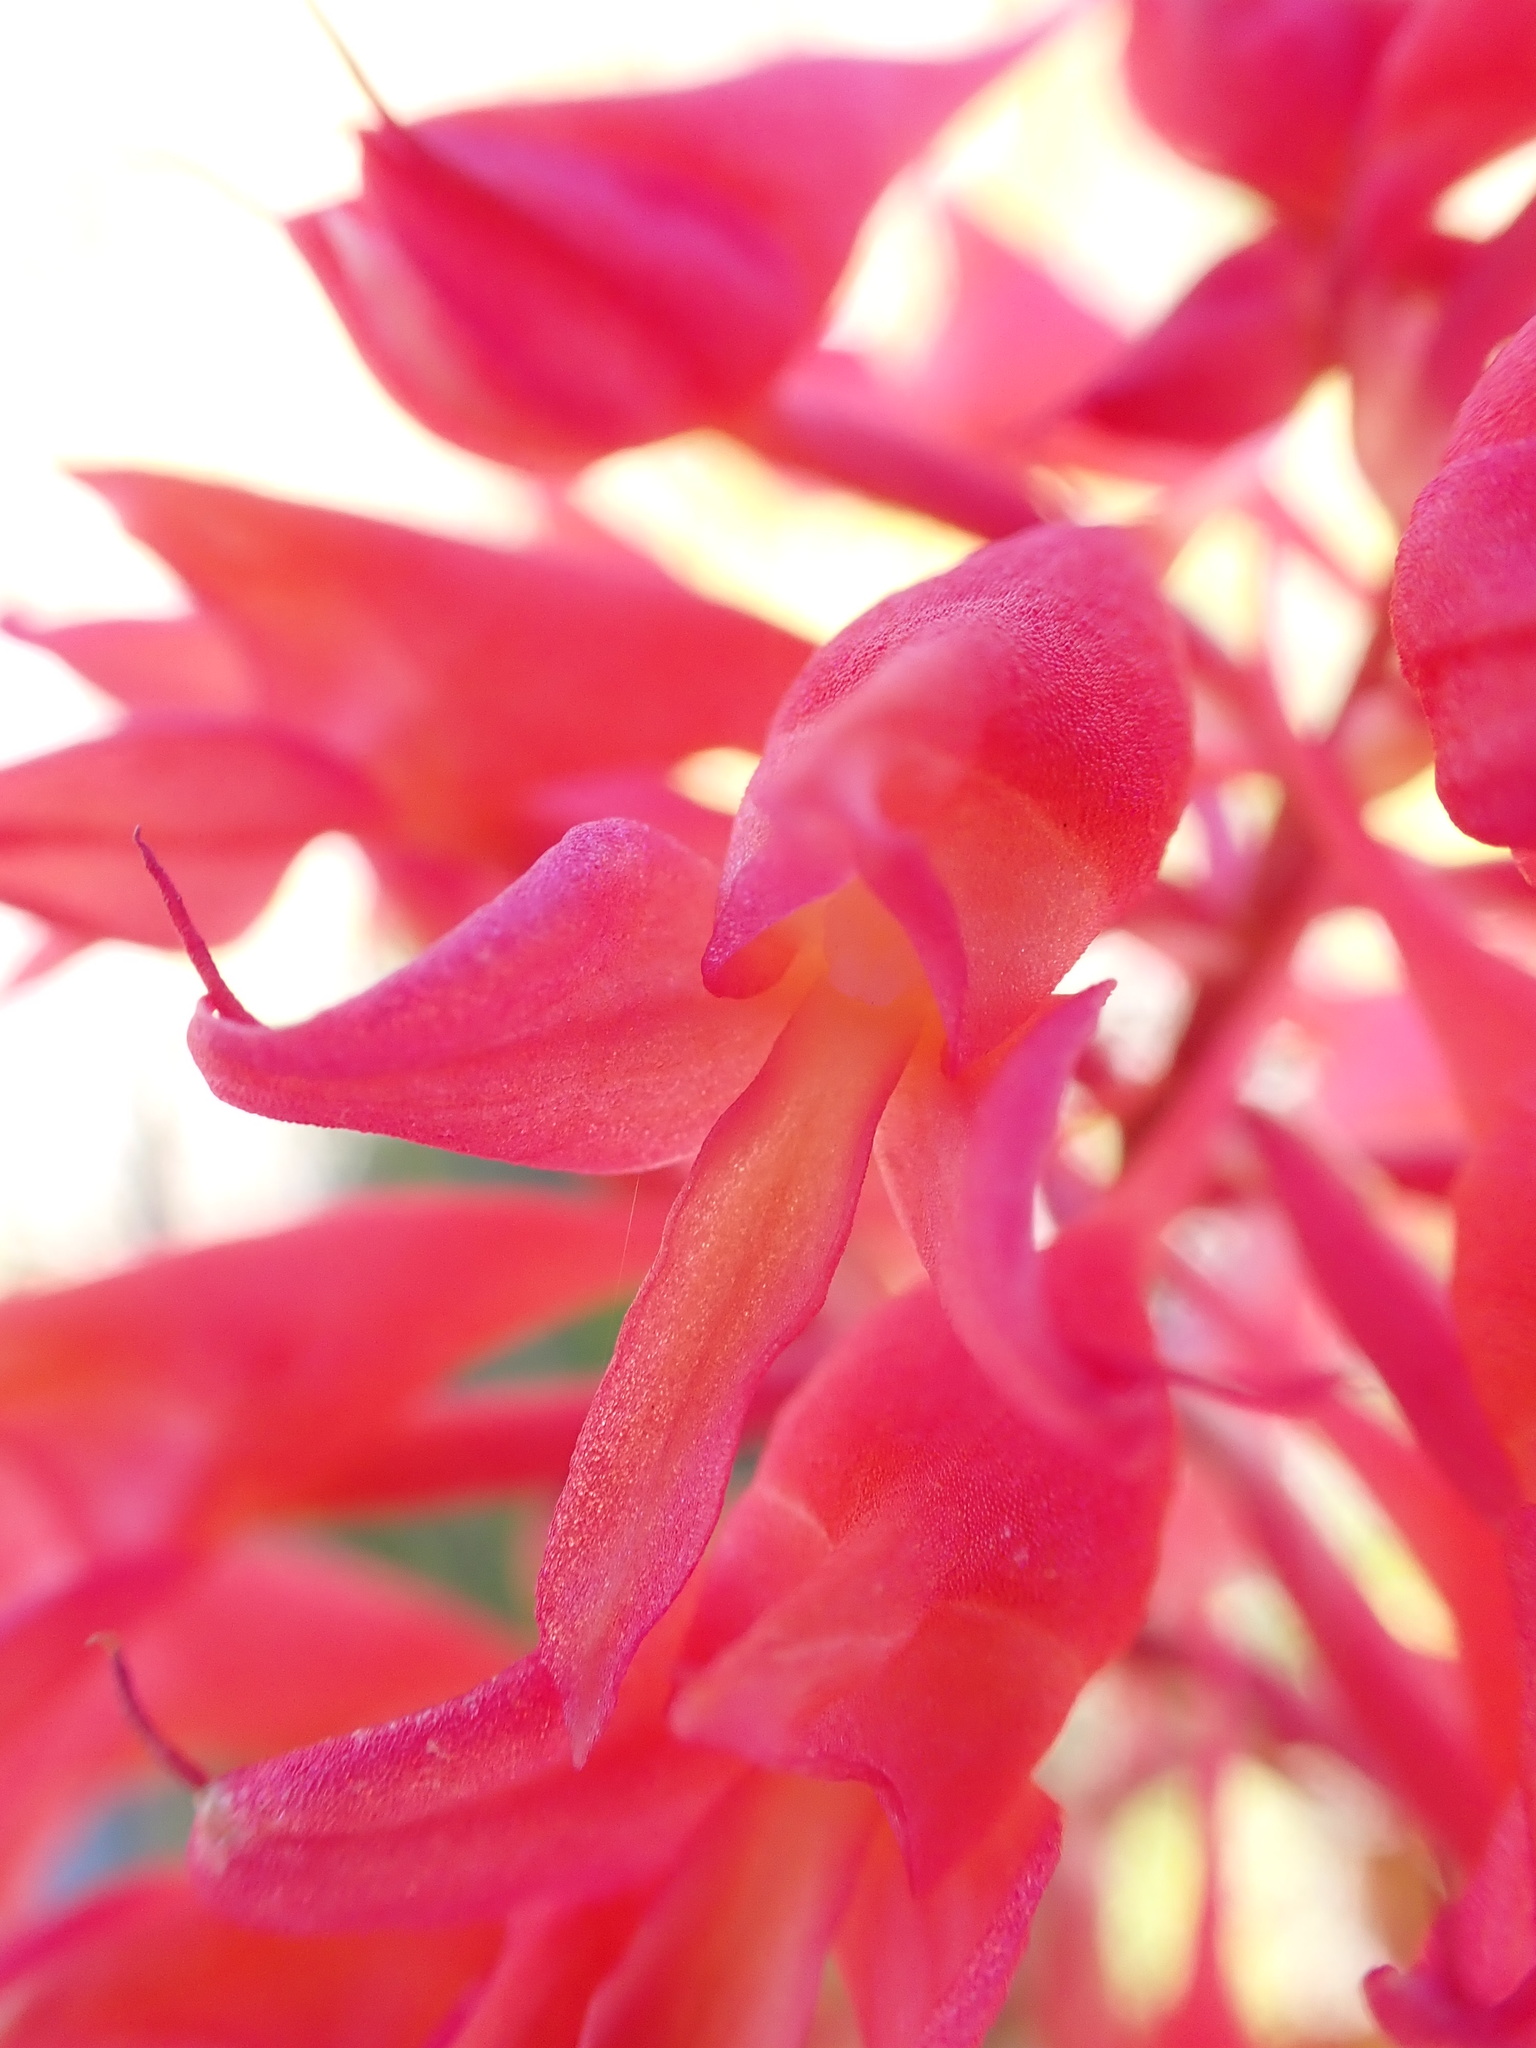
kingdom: Plantae
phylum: Tracheophyta
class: Liliopsida
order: Asparagales
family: Orchidaceae
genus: Disa
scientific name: Disa ferruginea
